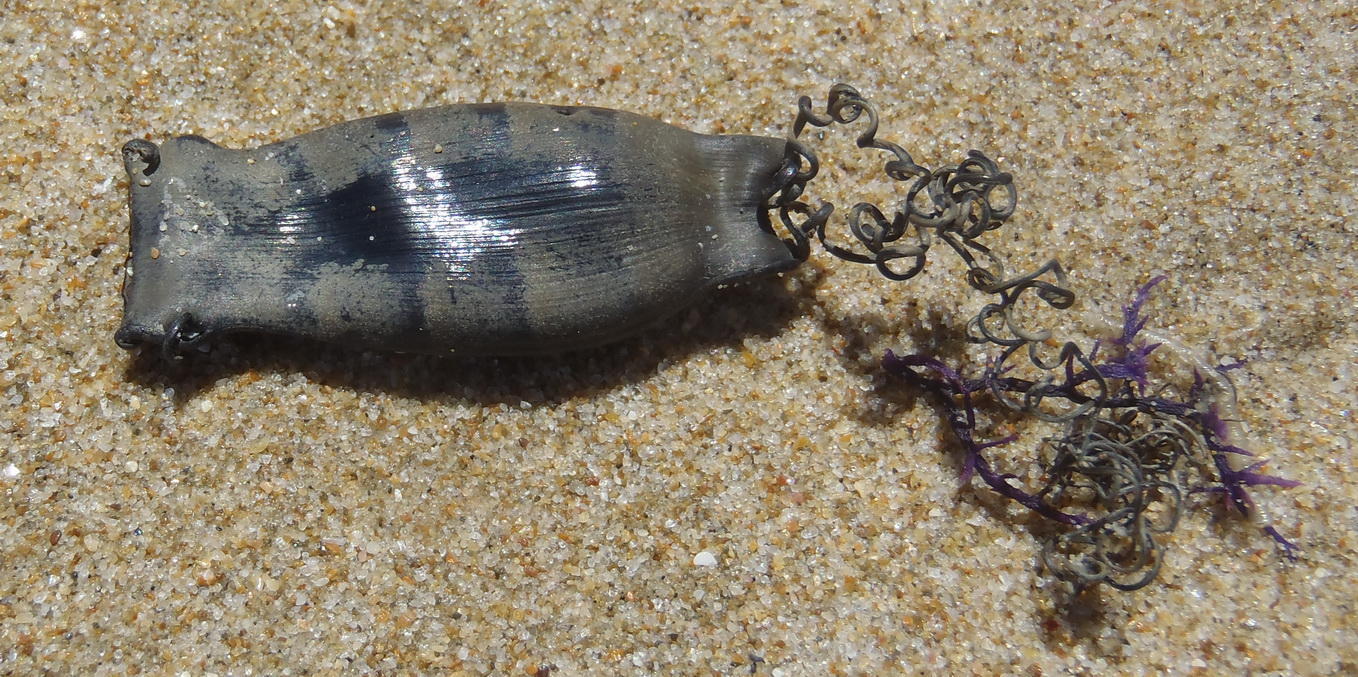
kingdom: Animalia
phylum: Chordata
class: Elasmobranchii
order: Carcharhiniformes
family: Scyliorhinidae
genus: Haploblepharus
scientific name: Haploblepharus edwardsii
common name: Puffadder shyshark
